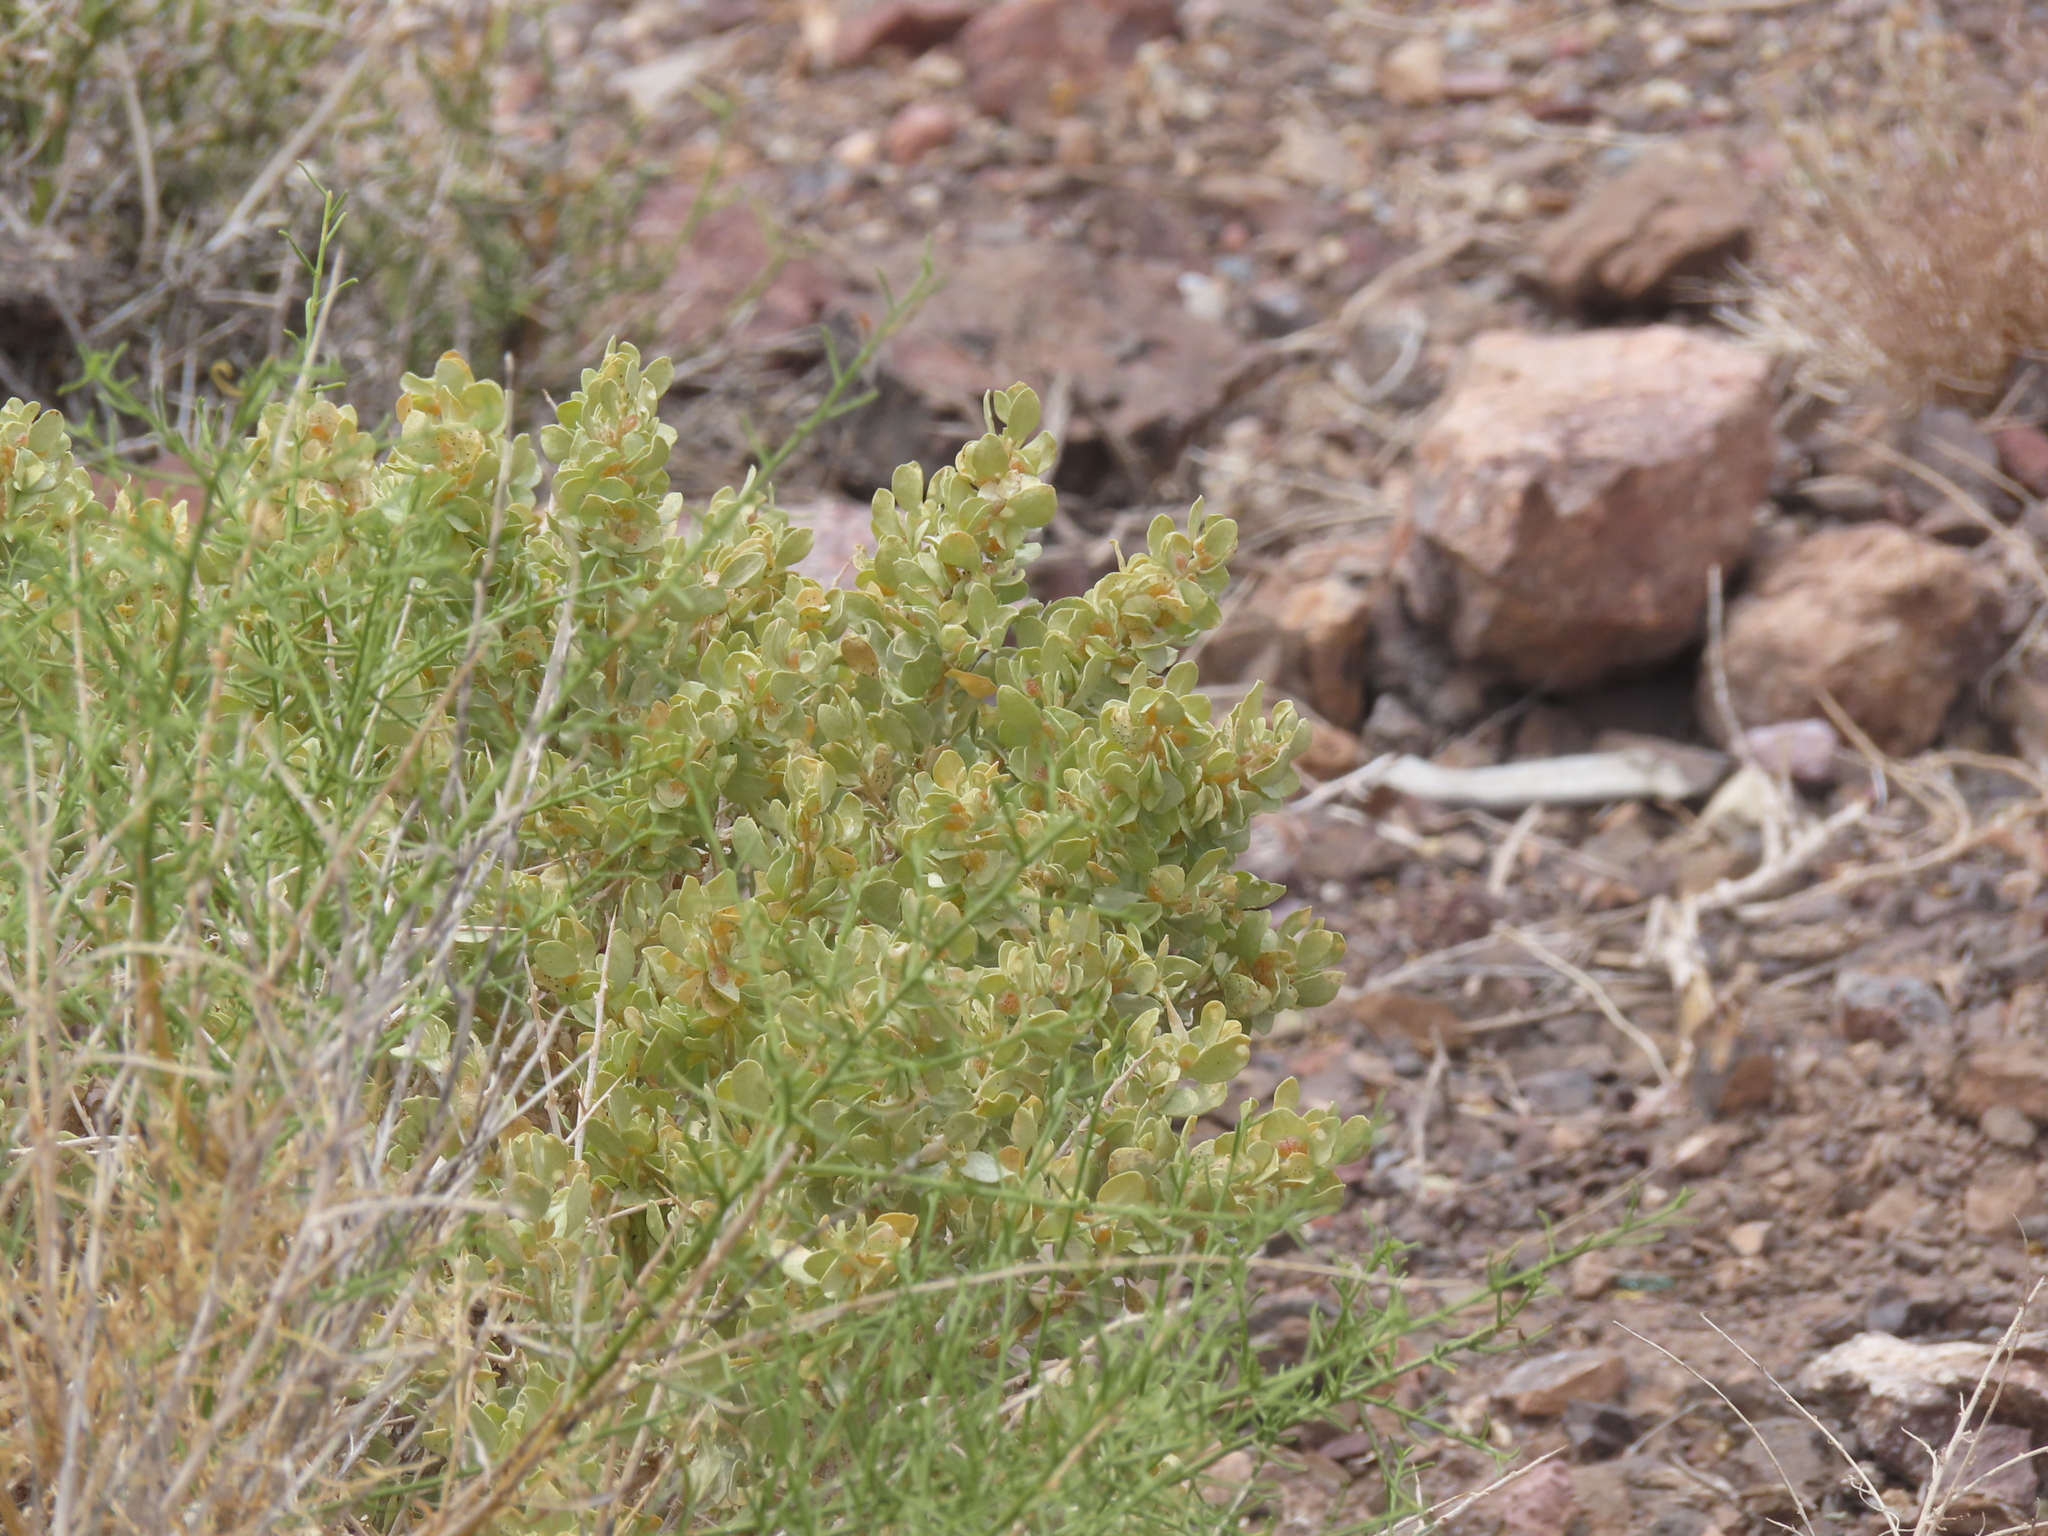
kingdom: Plantae
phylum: Tracheophyta
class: Magnoliopsida
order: Caryophyllales
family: Amaranthaceae
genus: Atriplex
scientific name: Atriplex confertifolia
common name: Shadscale
